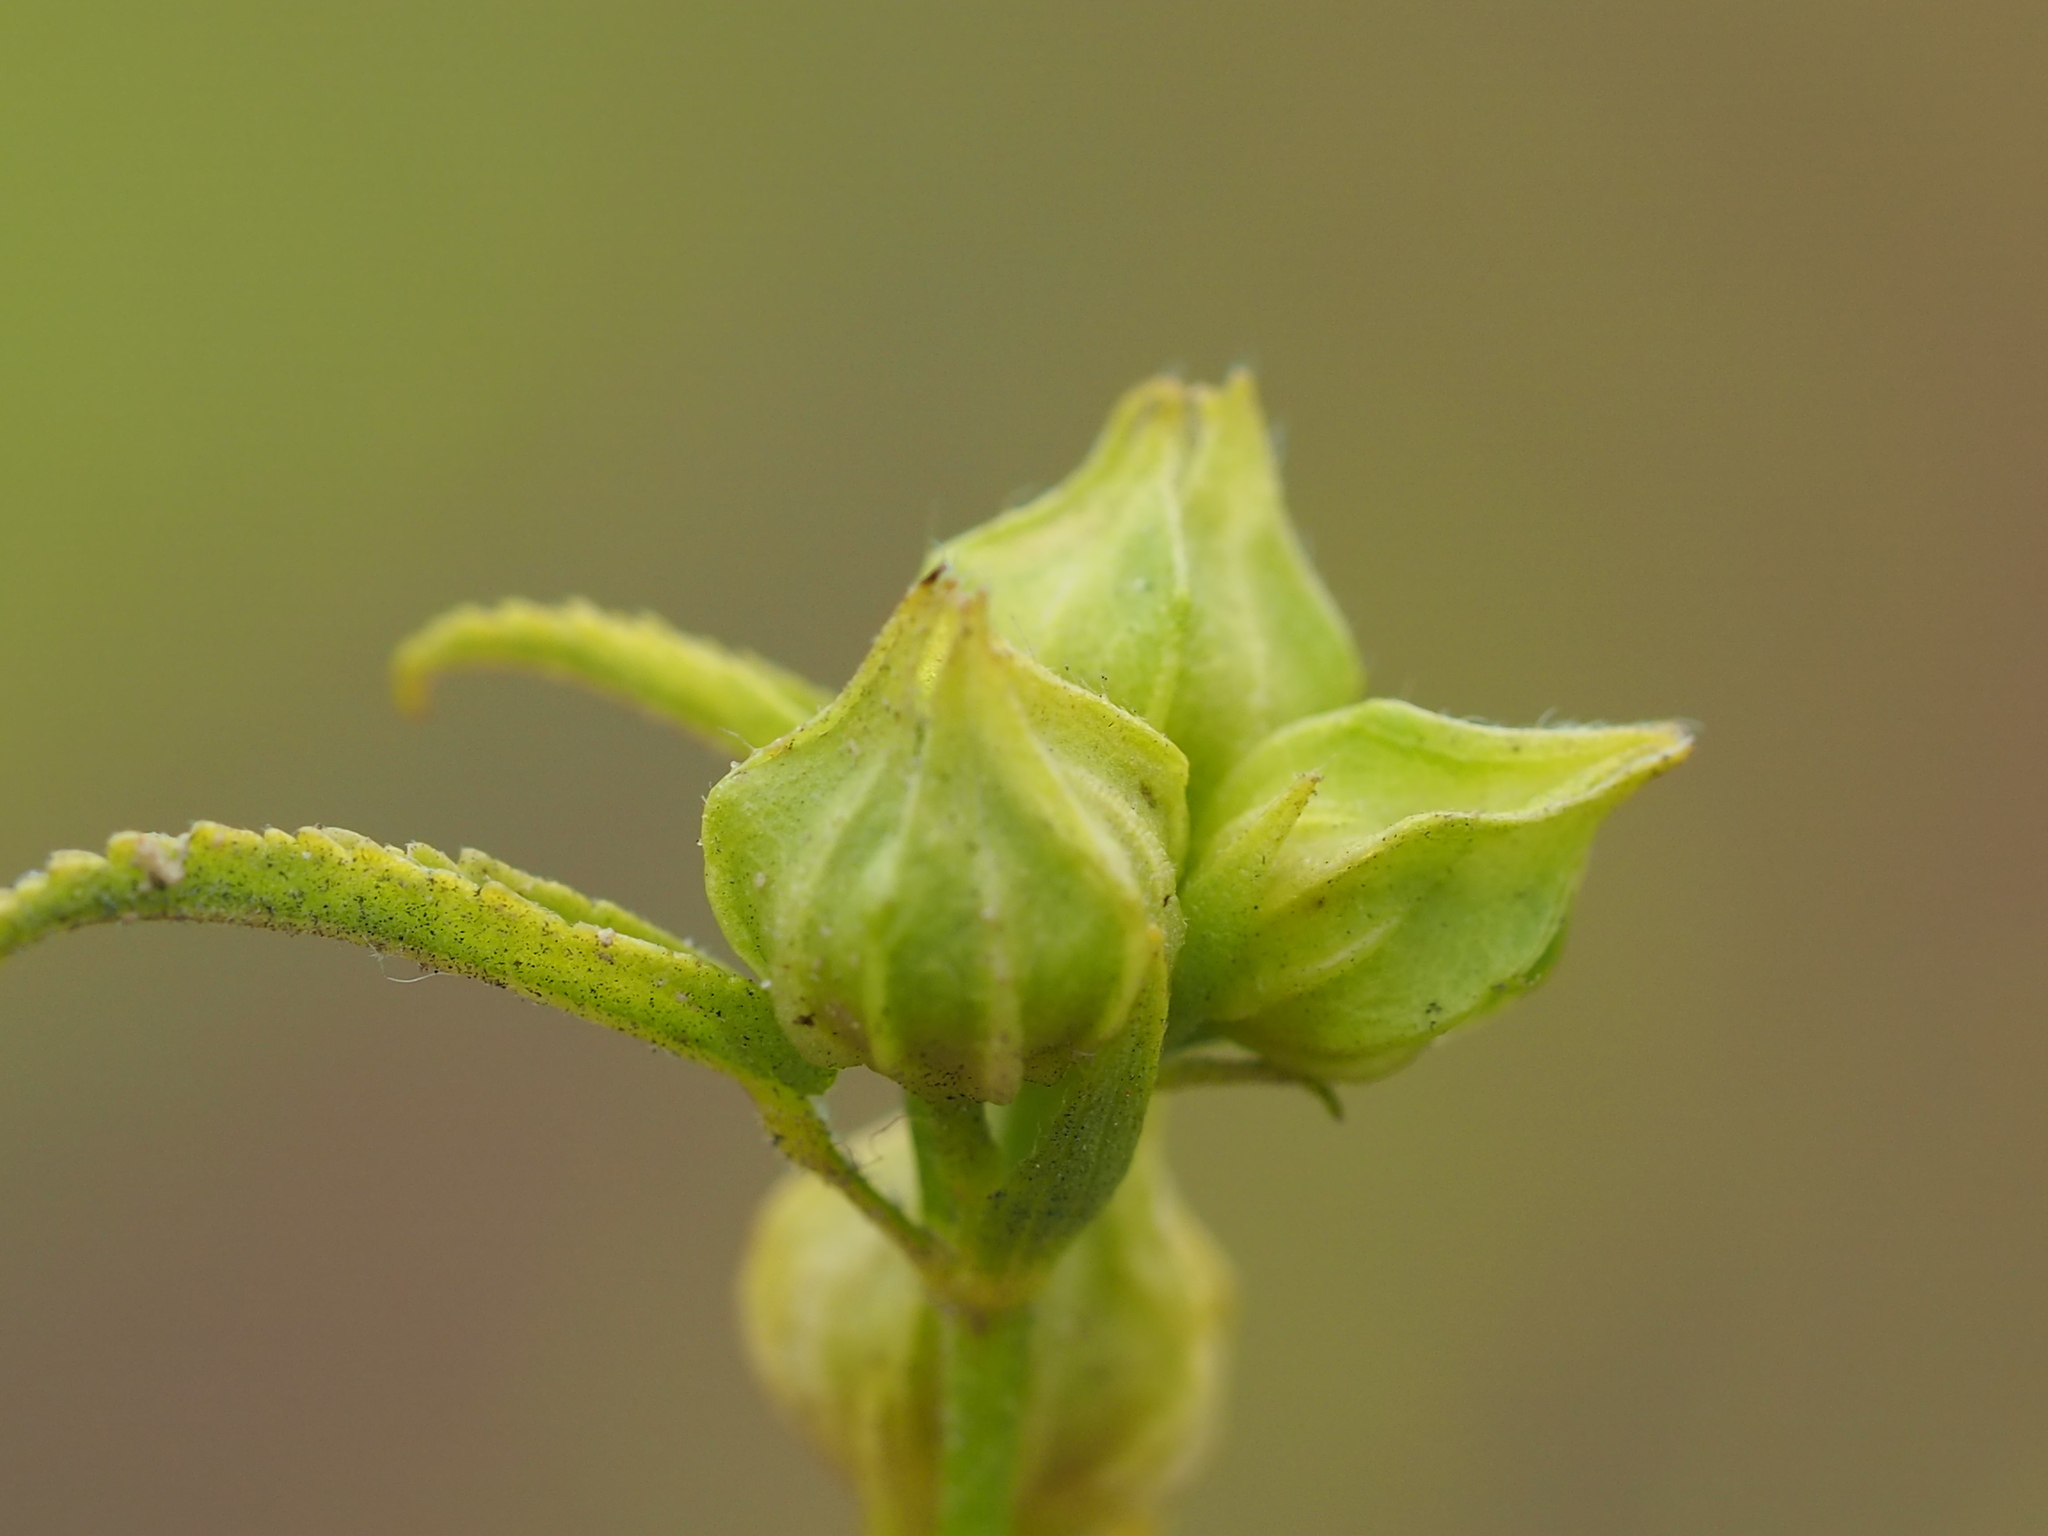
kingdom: Plantae
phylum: Tracheophyta
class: Magnoliopsida
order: Malvales
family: Malvaceae
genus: Sida
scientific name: Sida acuta
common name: Common wireweed
